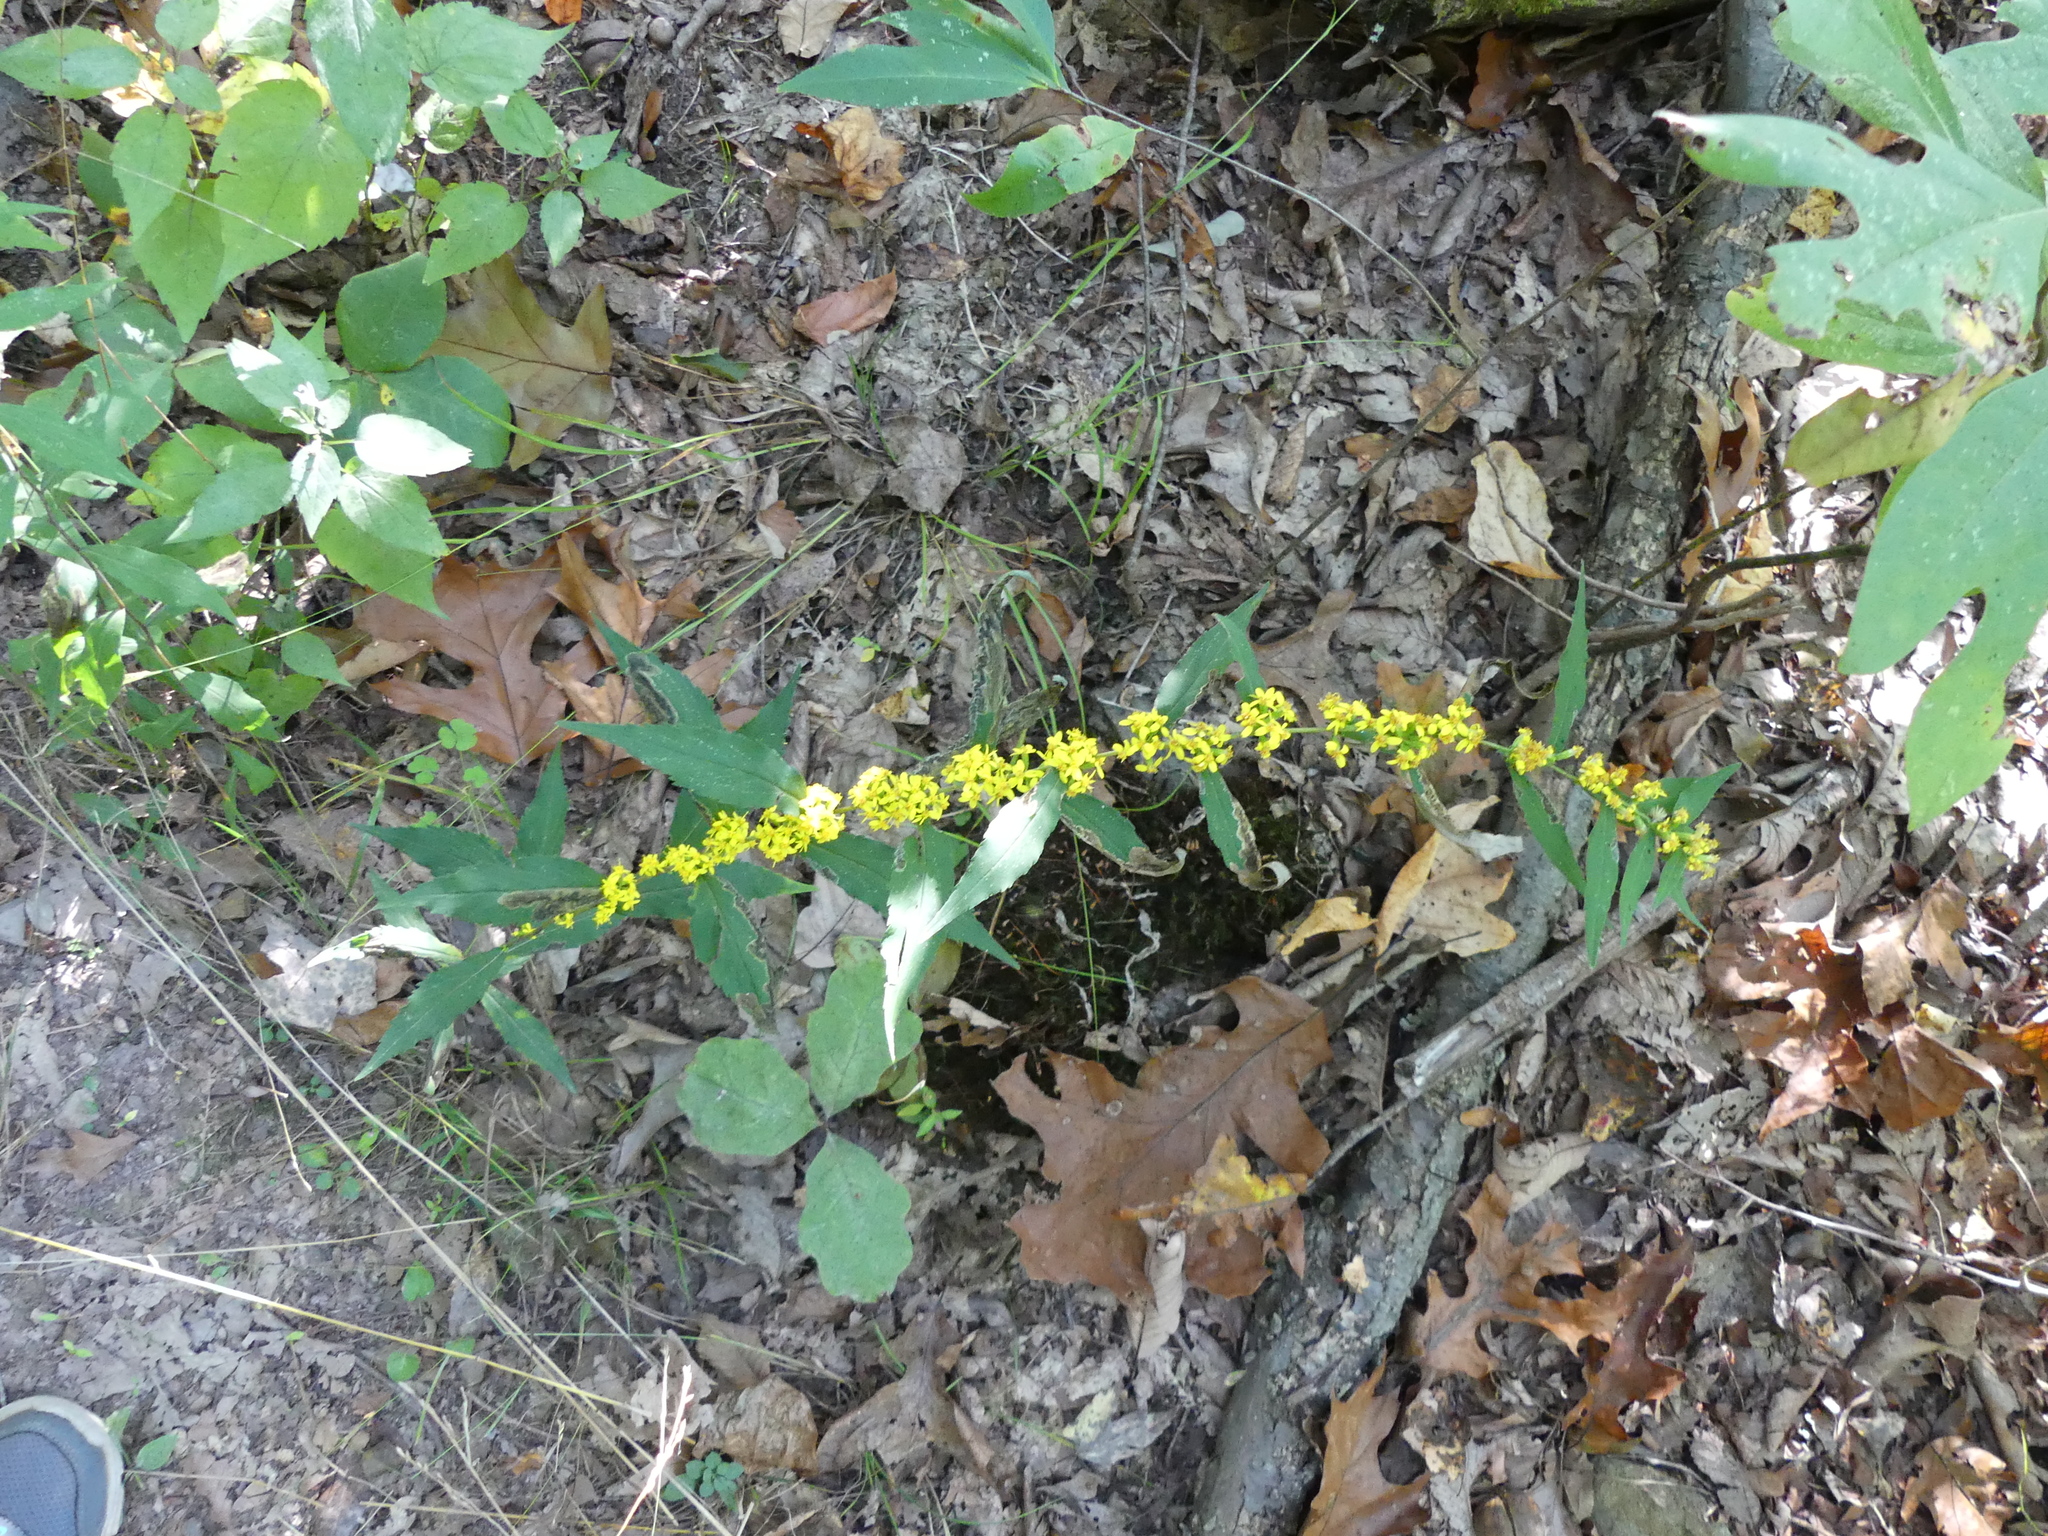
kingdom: Plantae
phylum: Tracheophyta
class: Magnoliopsida
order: Asterales
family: Asteraceae
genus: Solidago
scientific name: Solidago caesia
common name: Woodland goldenrod
